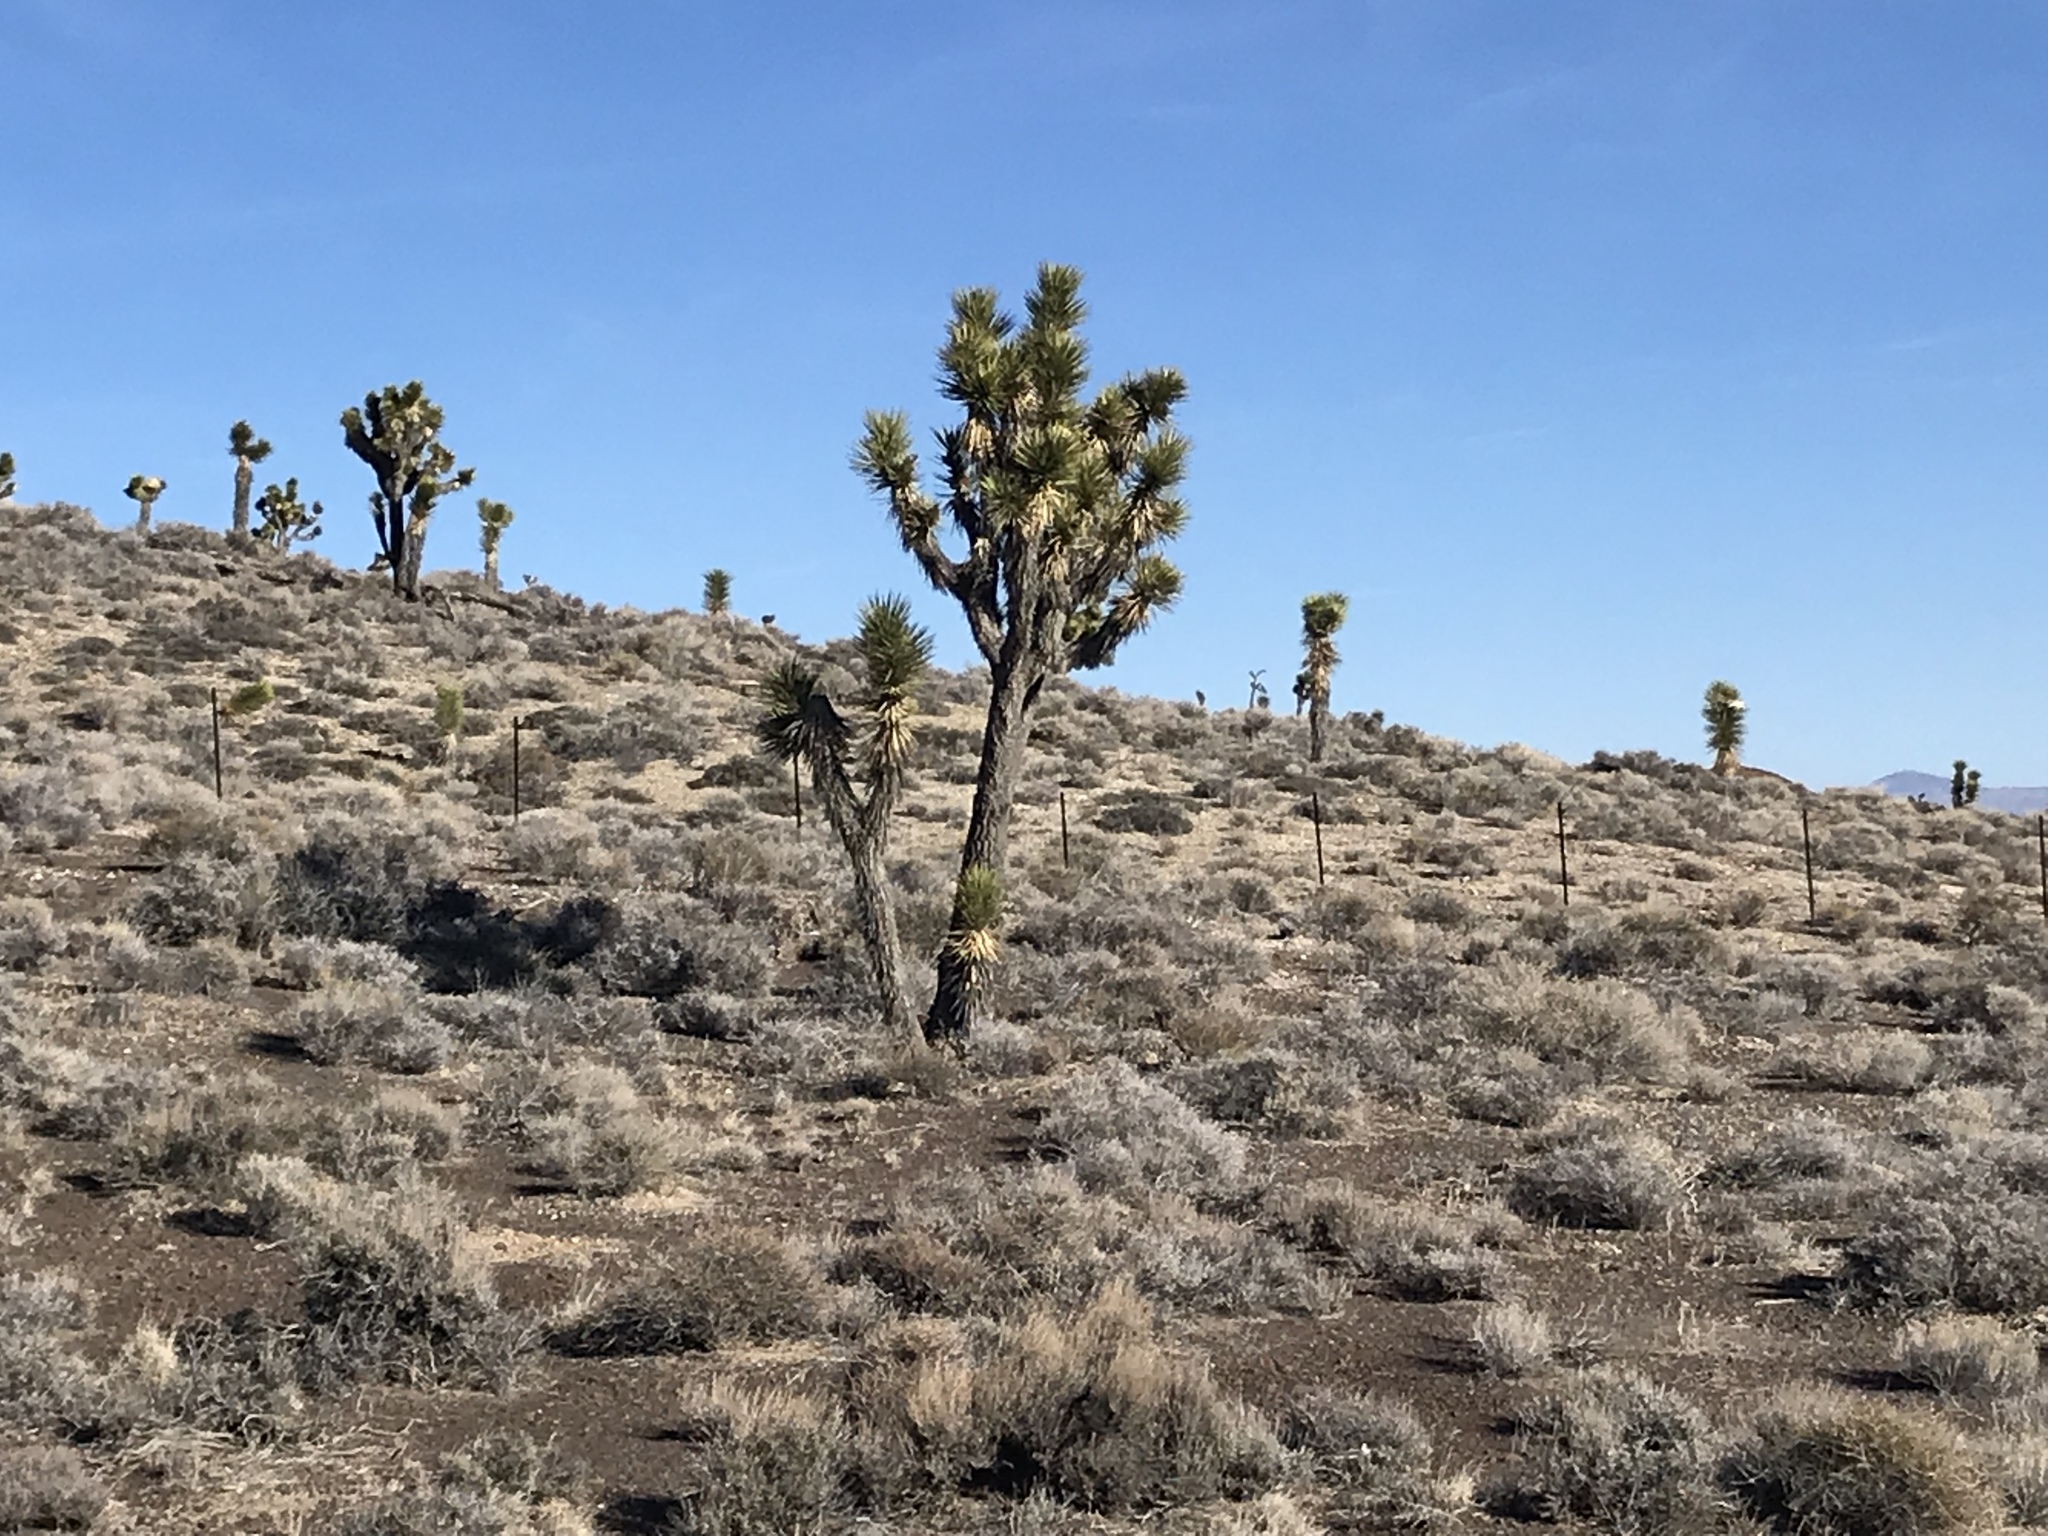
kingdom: Plantae
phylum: Tracheophyta
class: Liliopsida
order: Asparagales
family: Asparagaceae
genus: Yucca
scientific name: Yucca brevifolia
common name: Joshua tree
